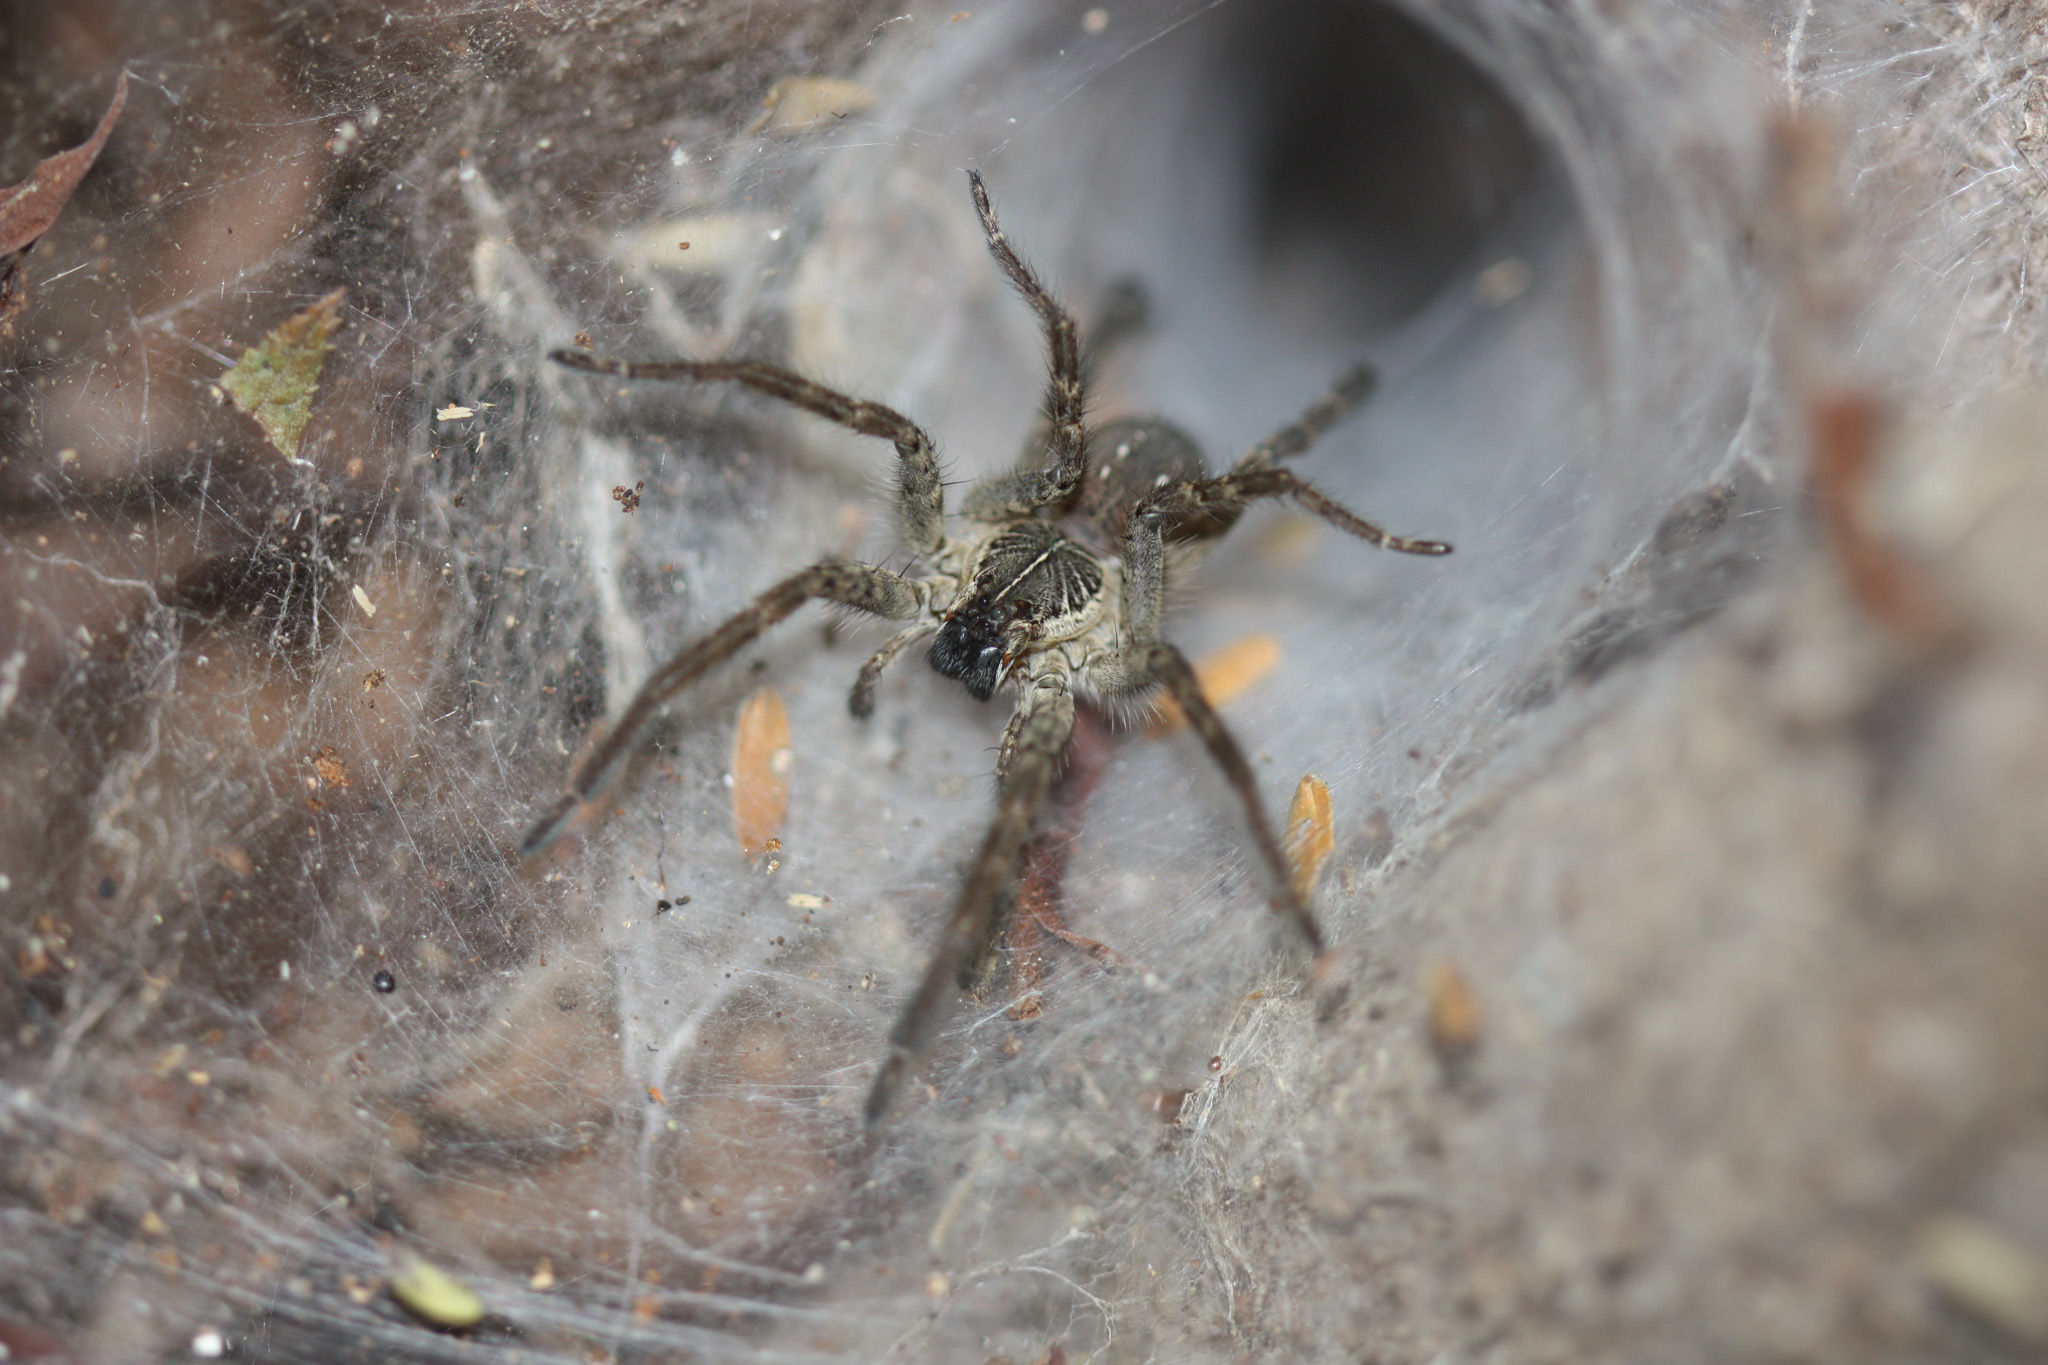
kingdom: Animalia
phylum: Arthropoda
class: Arachnida
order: Araneae
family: Lycosidae
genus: Sosippus
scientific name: Sosippus agalenoides
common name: Wolf spiders
